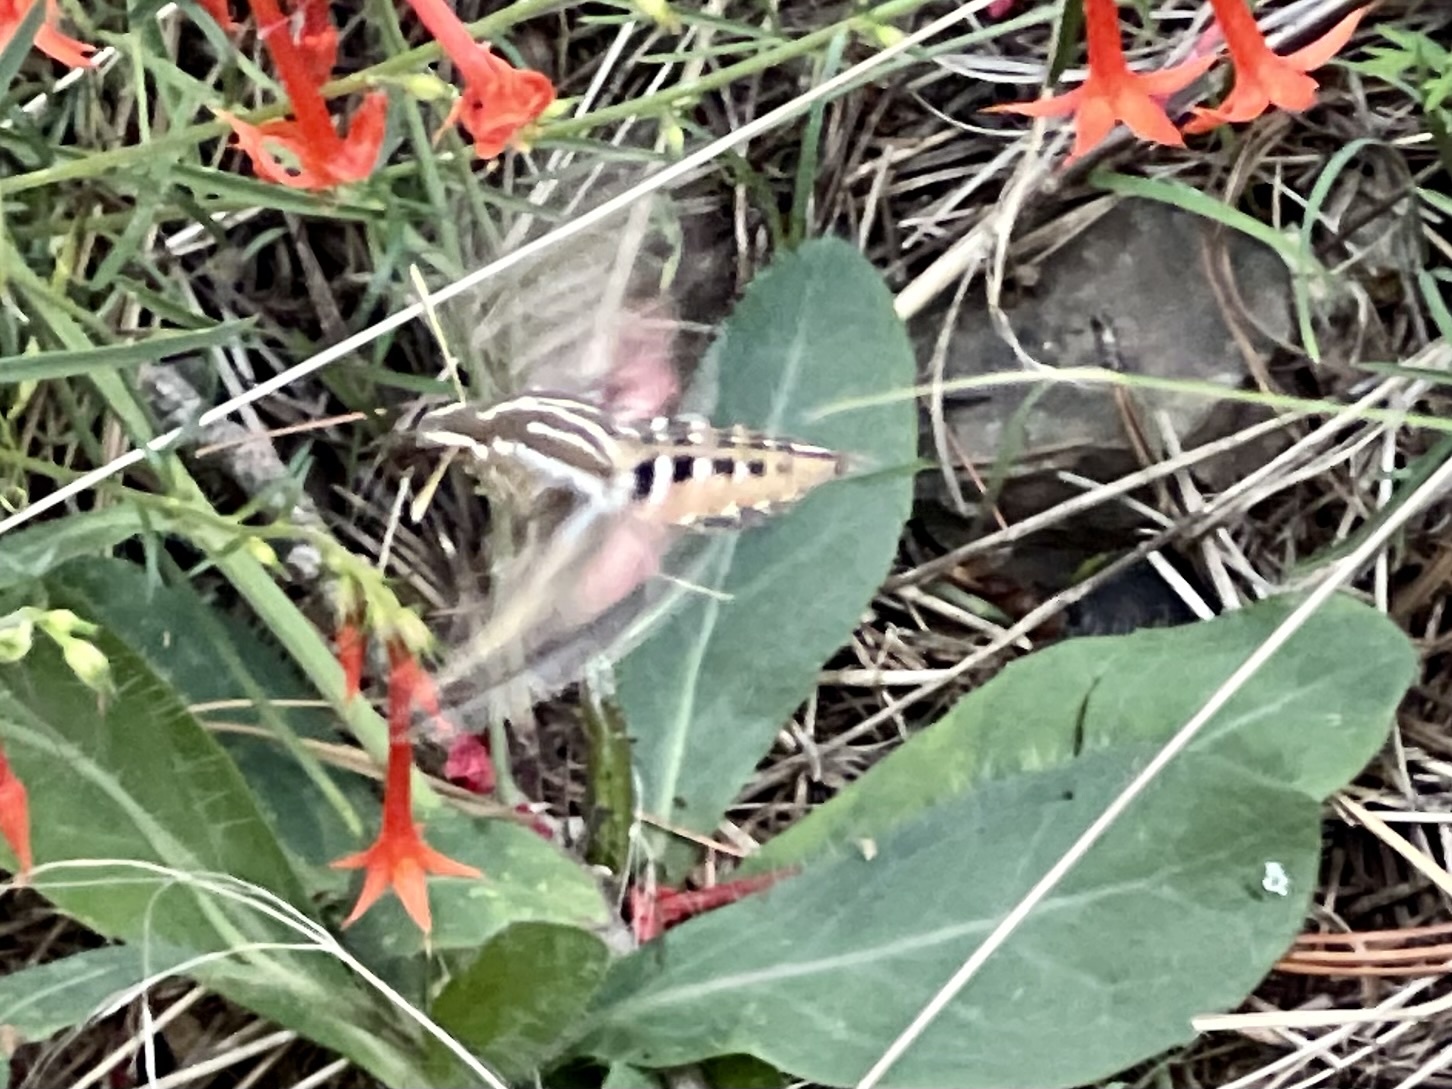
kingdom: Animalia
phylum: Arthropoda
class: Insecta
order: Lepidoptera
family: Sphingidae
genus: Hyles
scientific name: Hyles lineata
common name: White-lined sphinx
